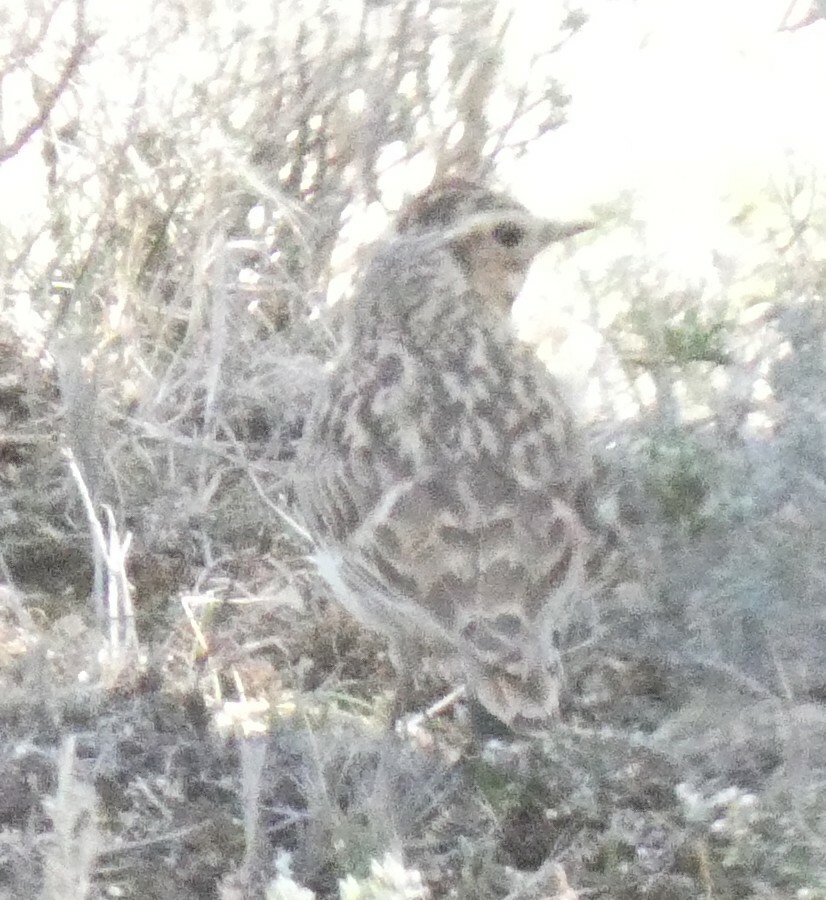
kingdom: Animalia
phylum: Chordata
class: Aves
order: Passeriformes
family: Alaudidae
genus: Lullula
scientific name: Lullula arborea
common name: Woodlark
